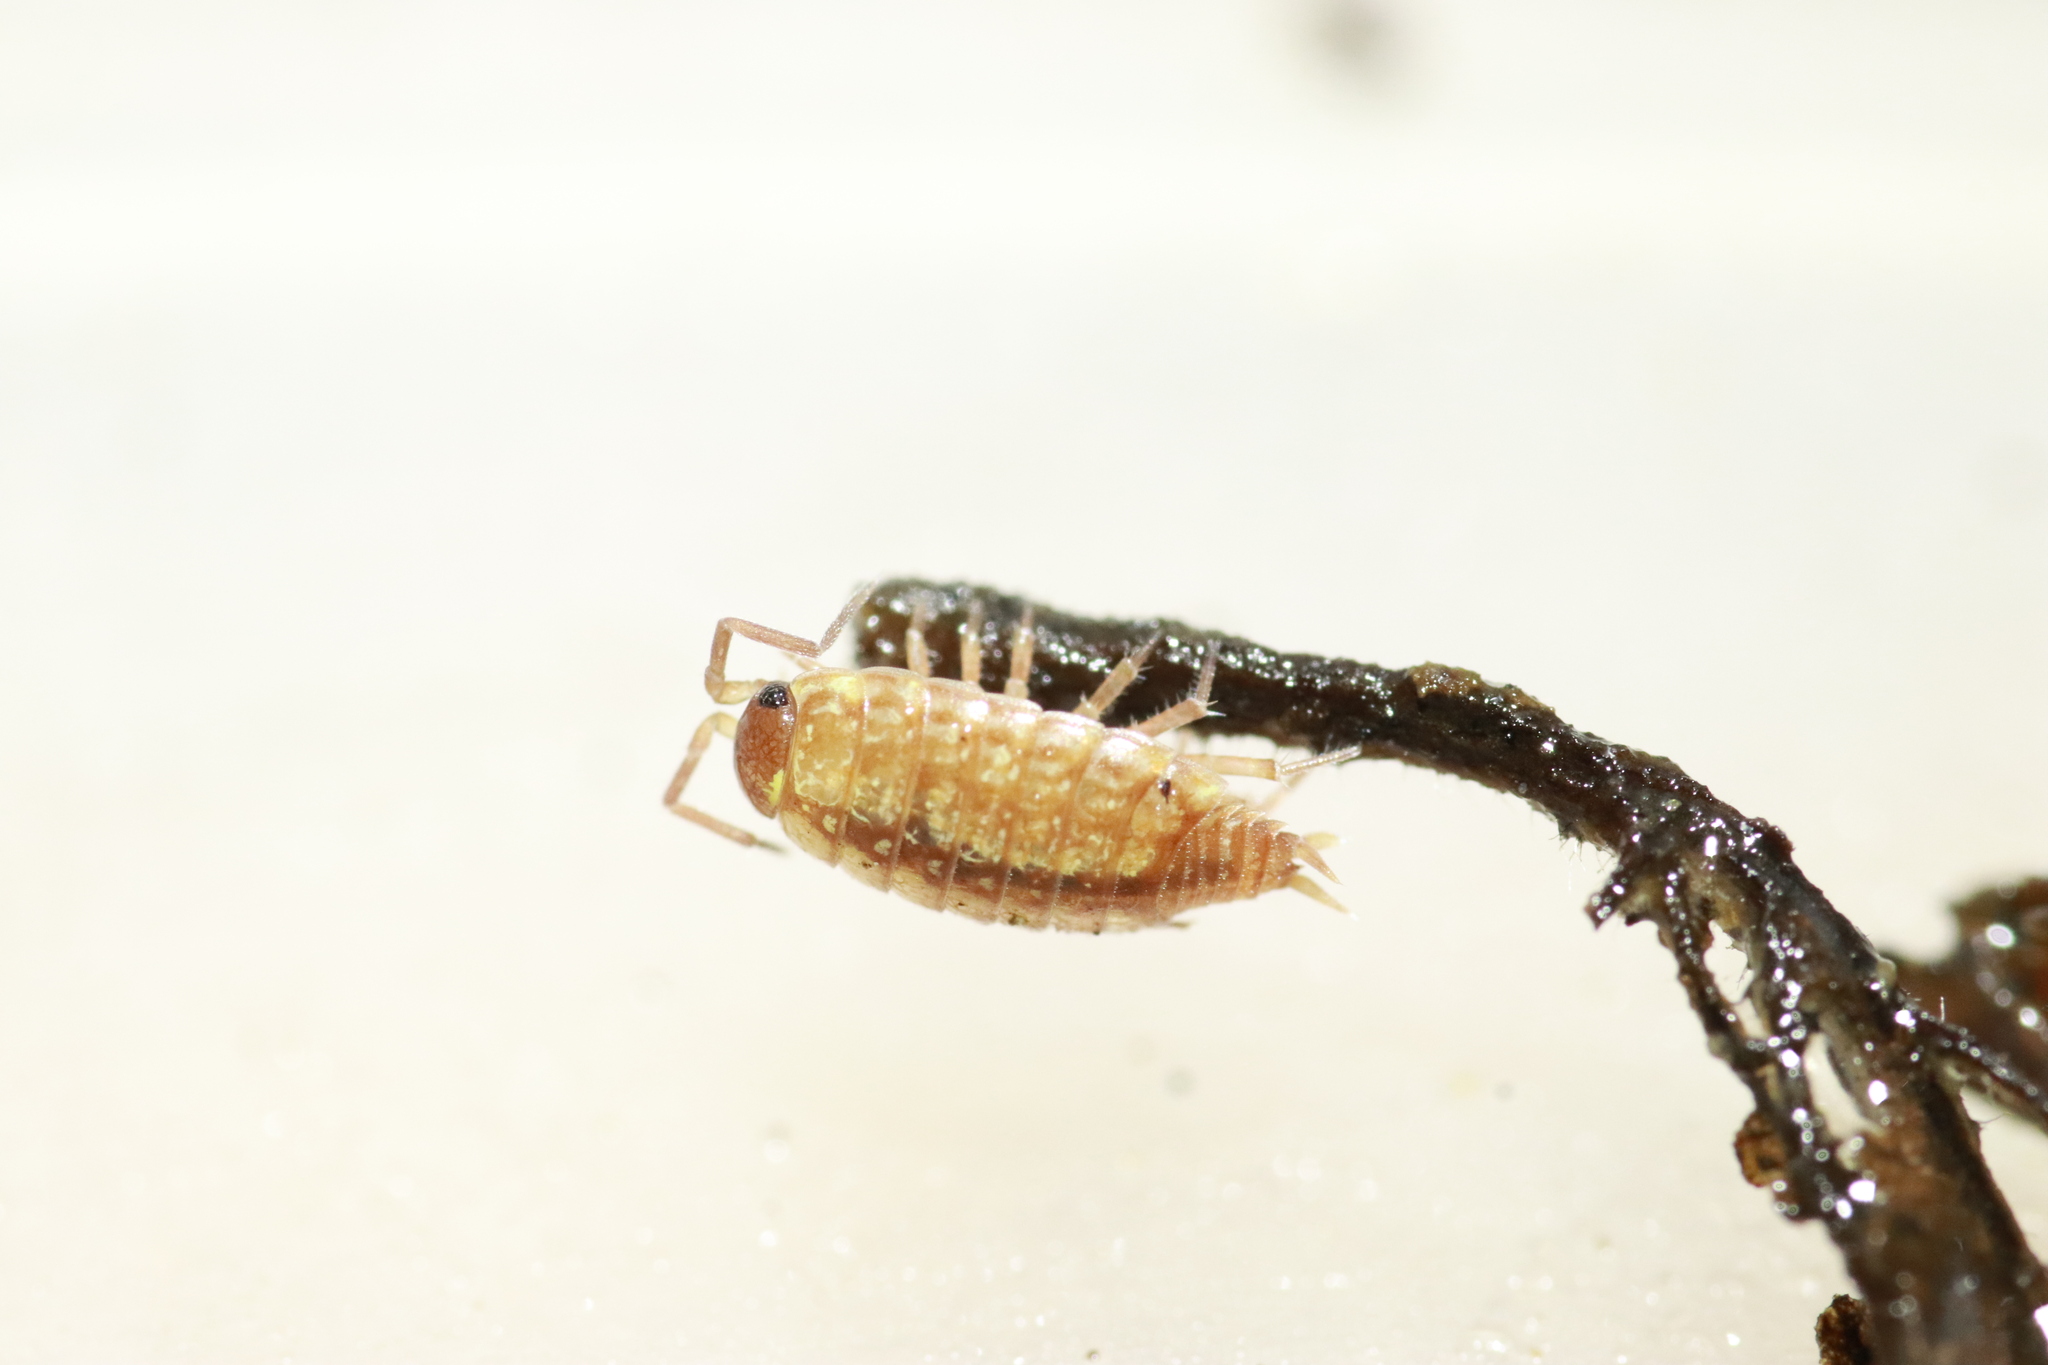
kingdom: Animalia
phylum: Arthropoda
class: Malacostraca
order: Isopoda
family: Philosciidae
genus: Philoscia
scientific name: Philoscia muscorum
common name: Common striped woodlouse
